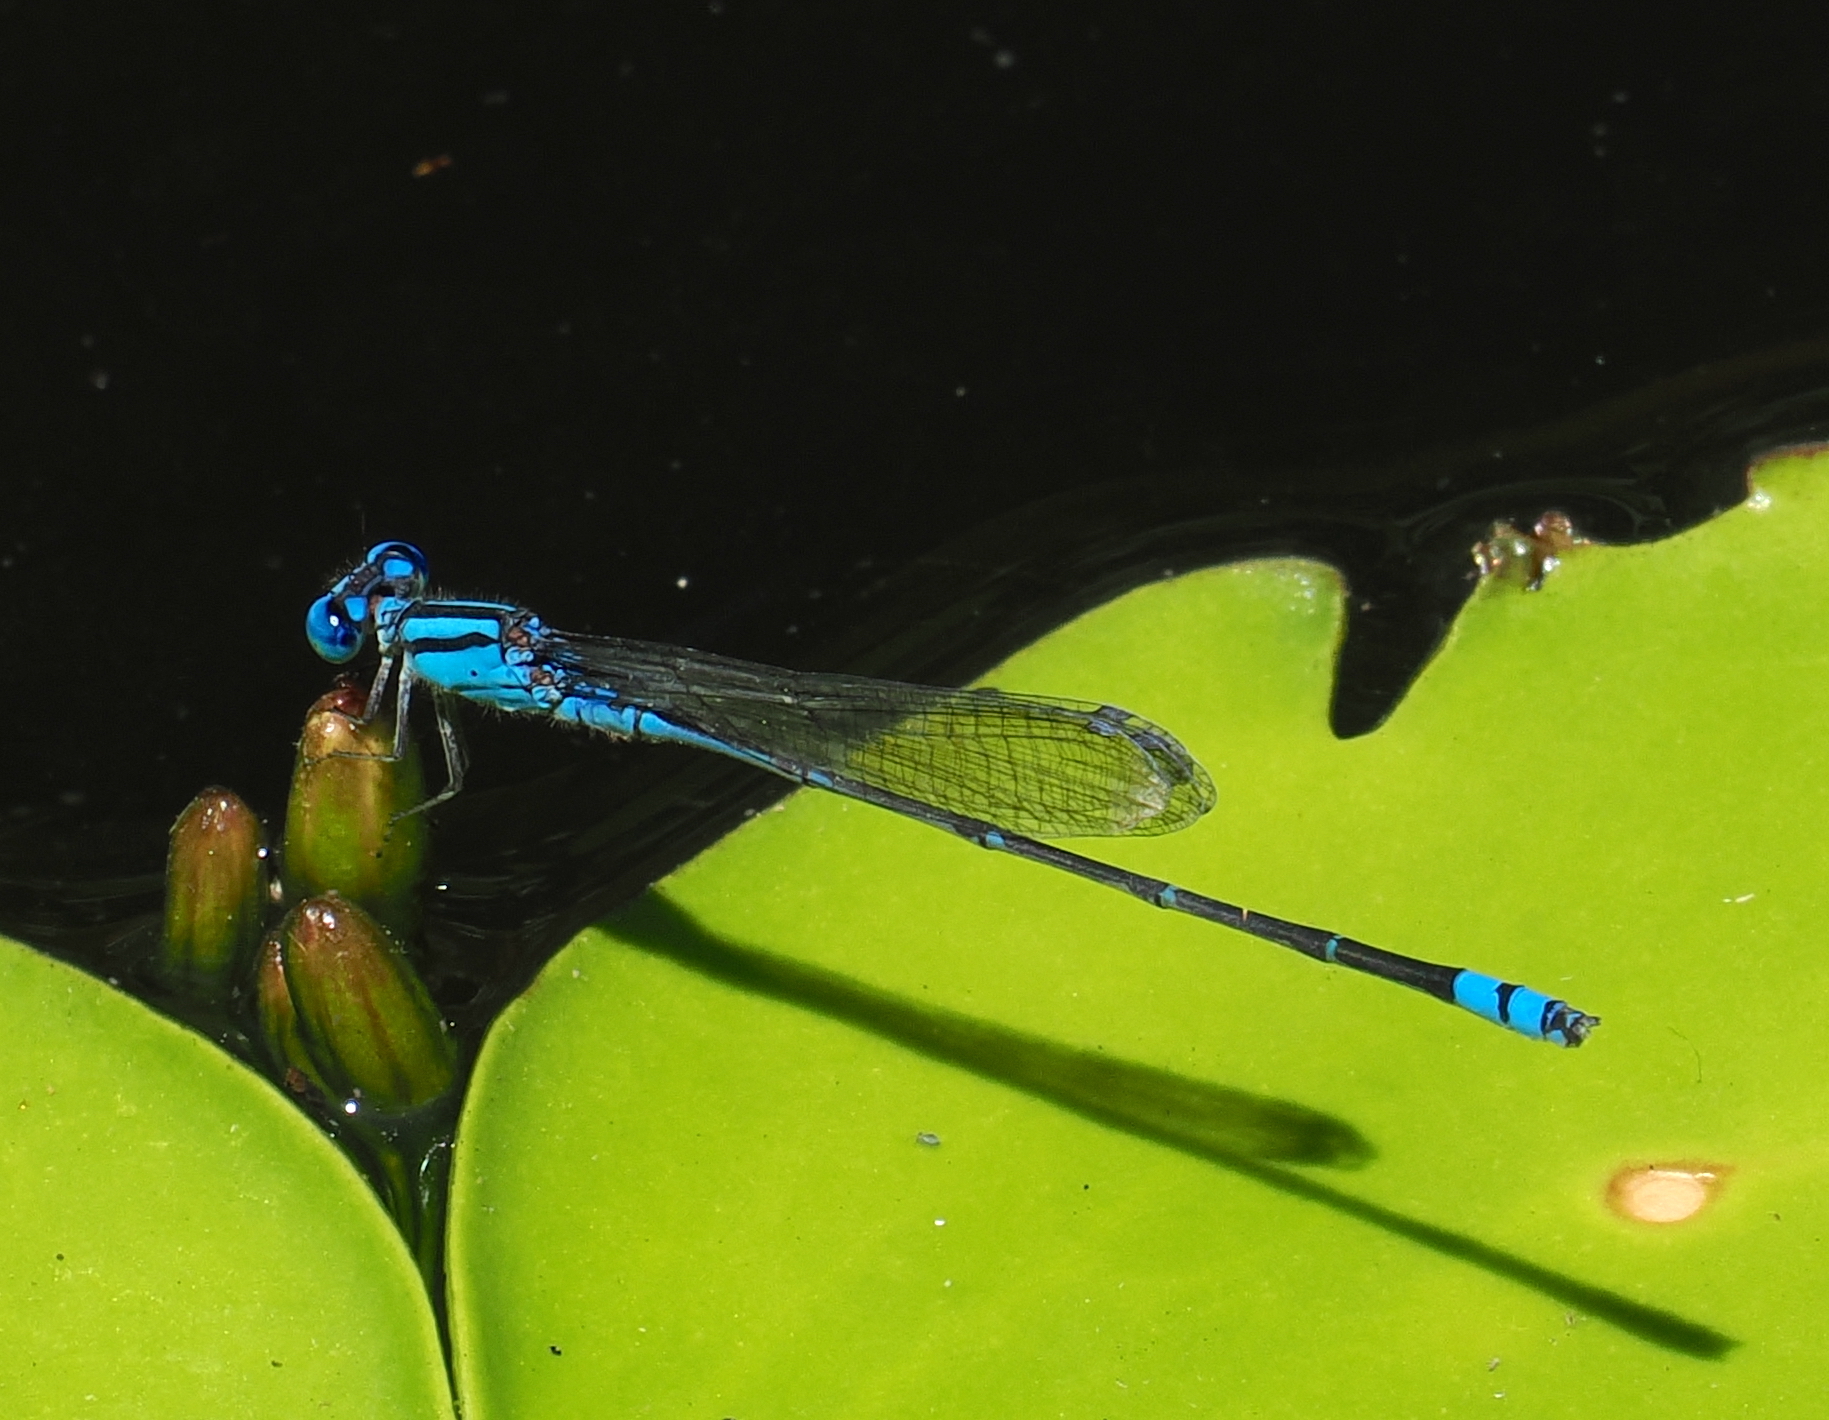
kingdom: Animalia
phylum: Arthropoda
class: Insecta
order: Odonata
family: Coenagrionidae
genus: Pseudagrion
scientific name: Pseudagrion microcephalum
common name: Blue riverdamsel
